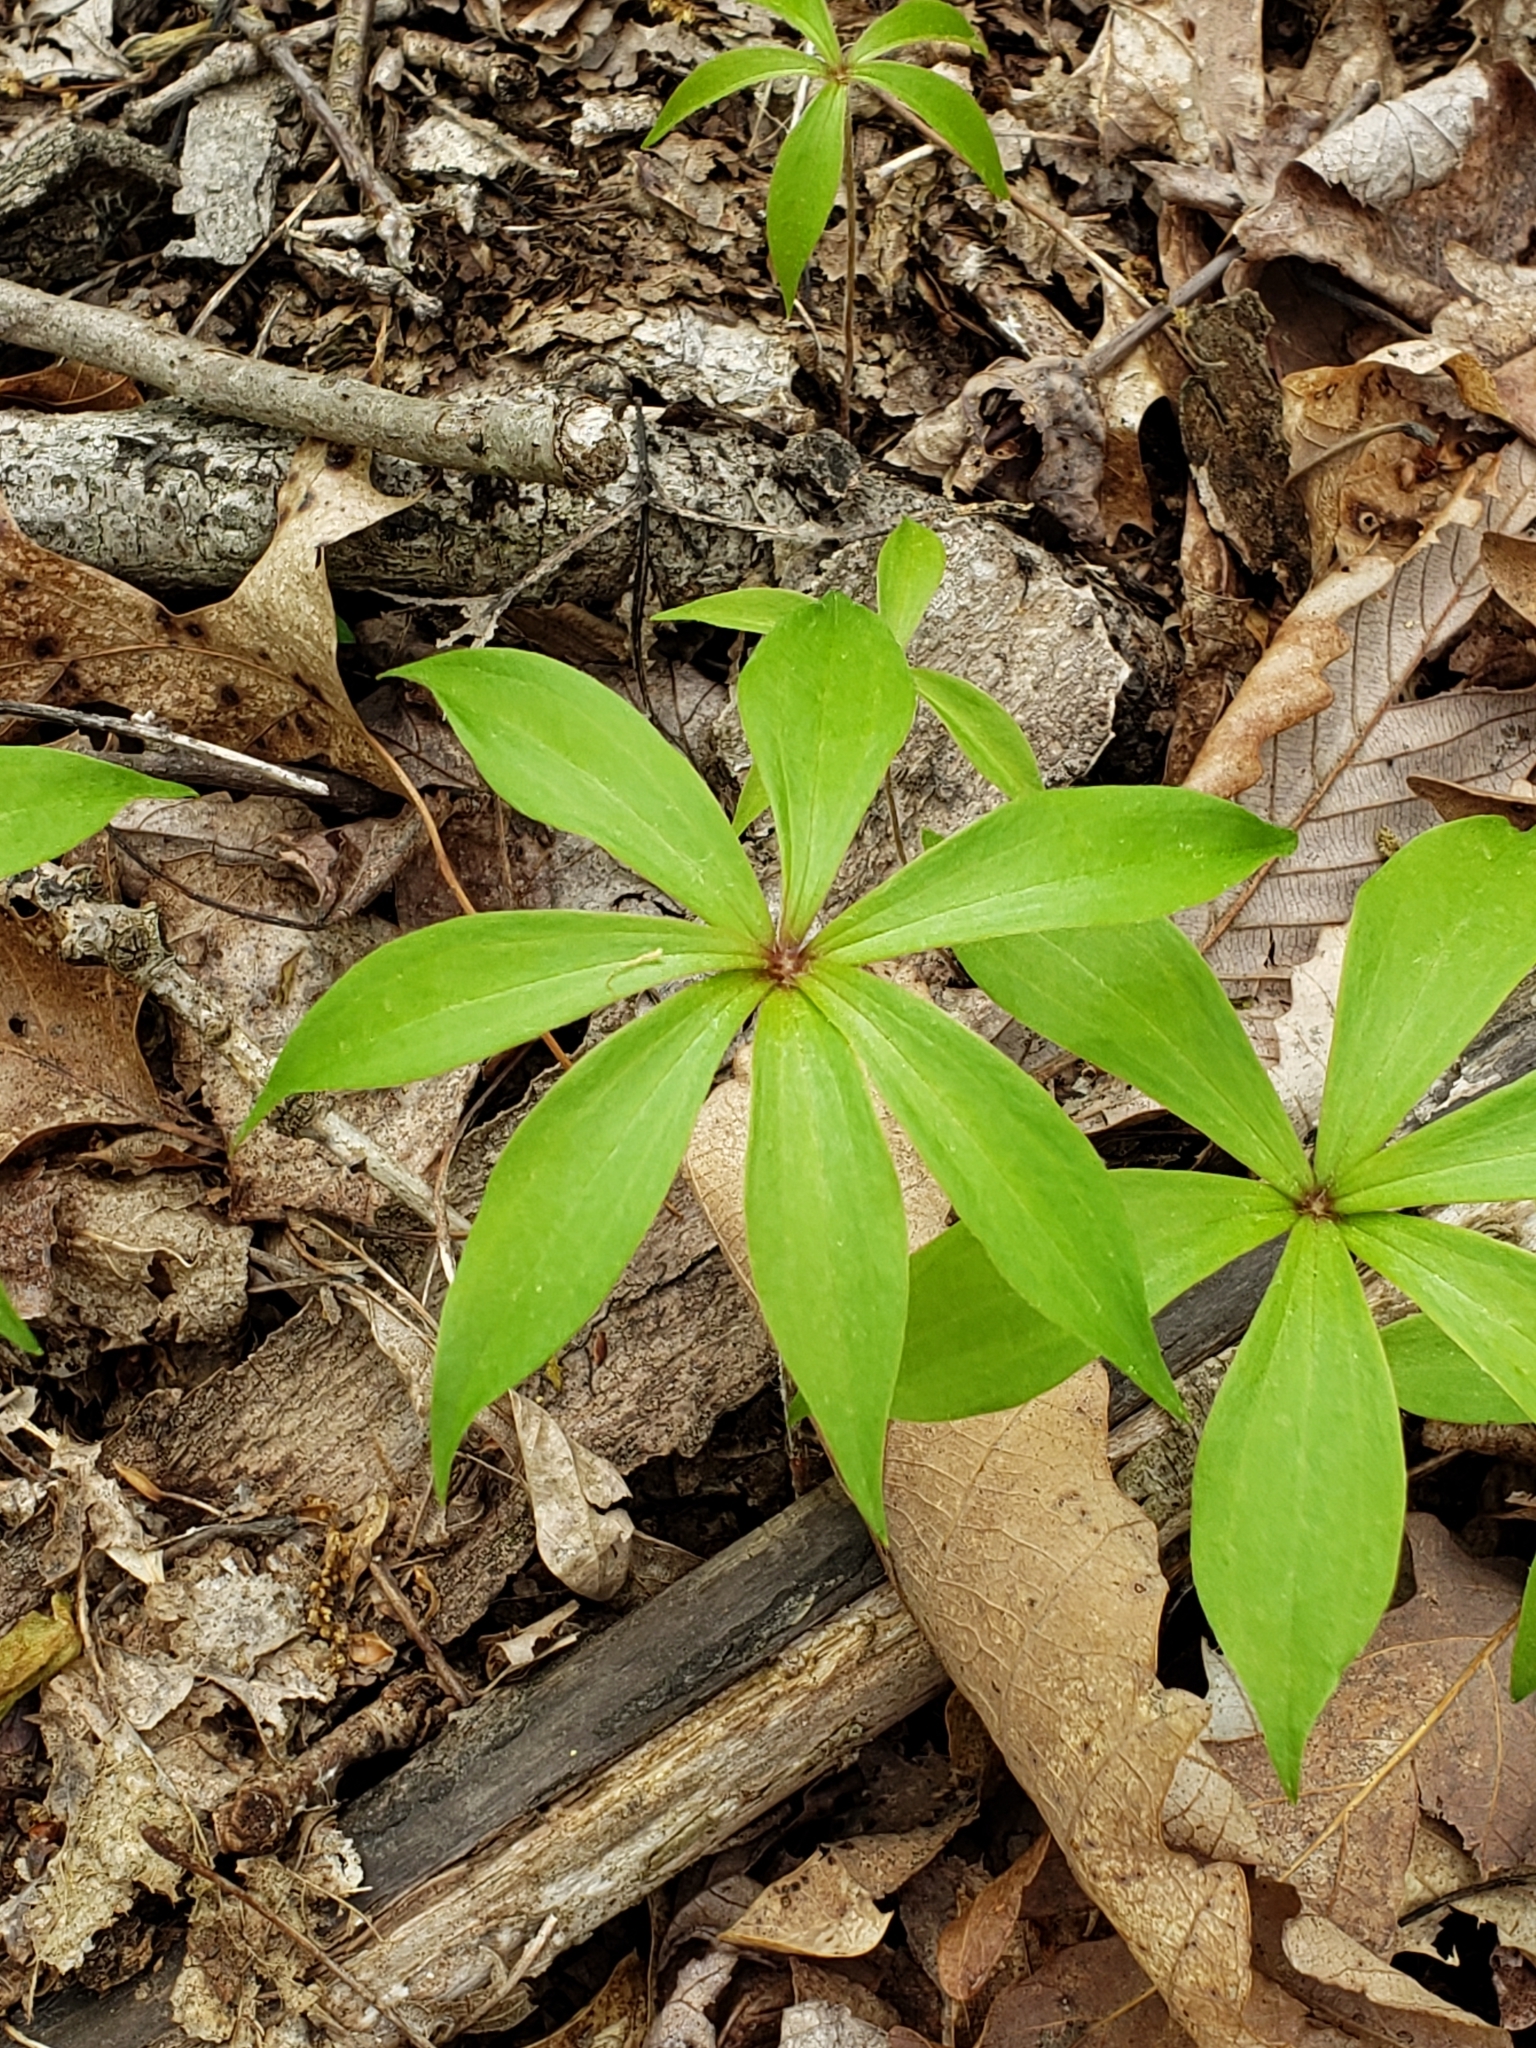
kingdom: Plantae
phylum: Tracheophyta
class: Liliopsida
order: Liliales
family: Liliaceae
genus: Medeola
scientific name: Medeola virginiana
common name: Indian cucumber-root
